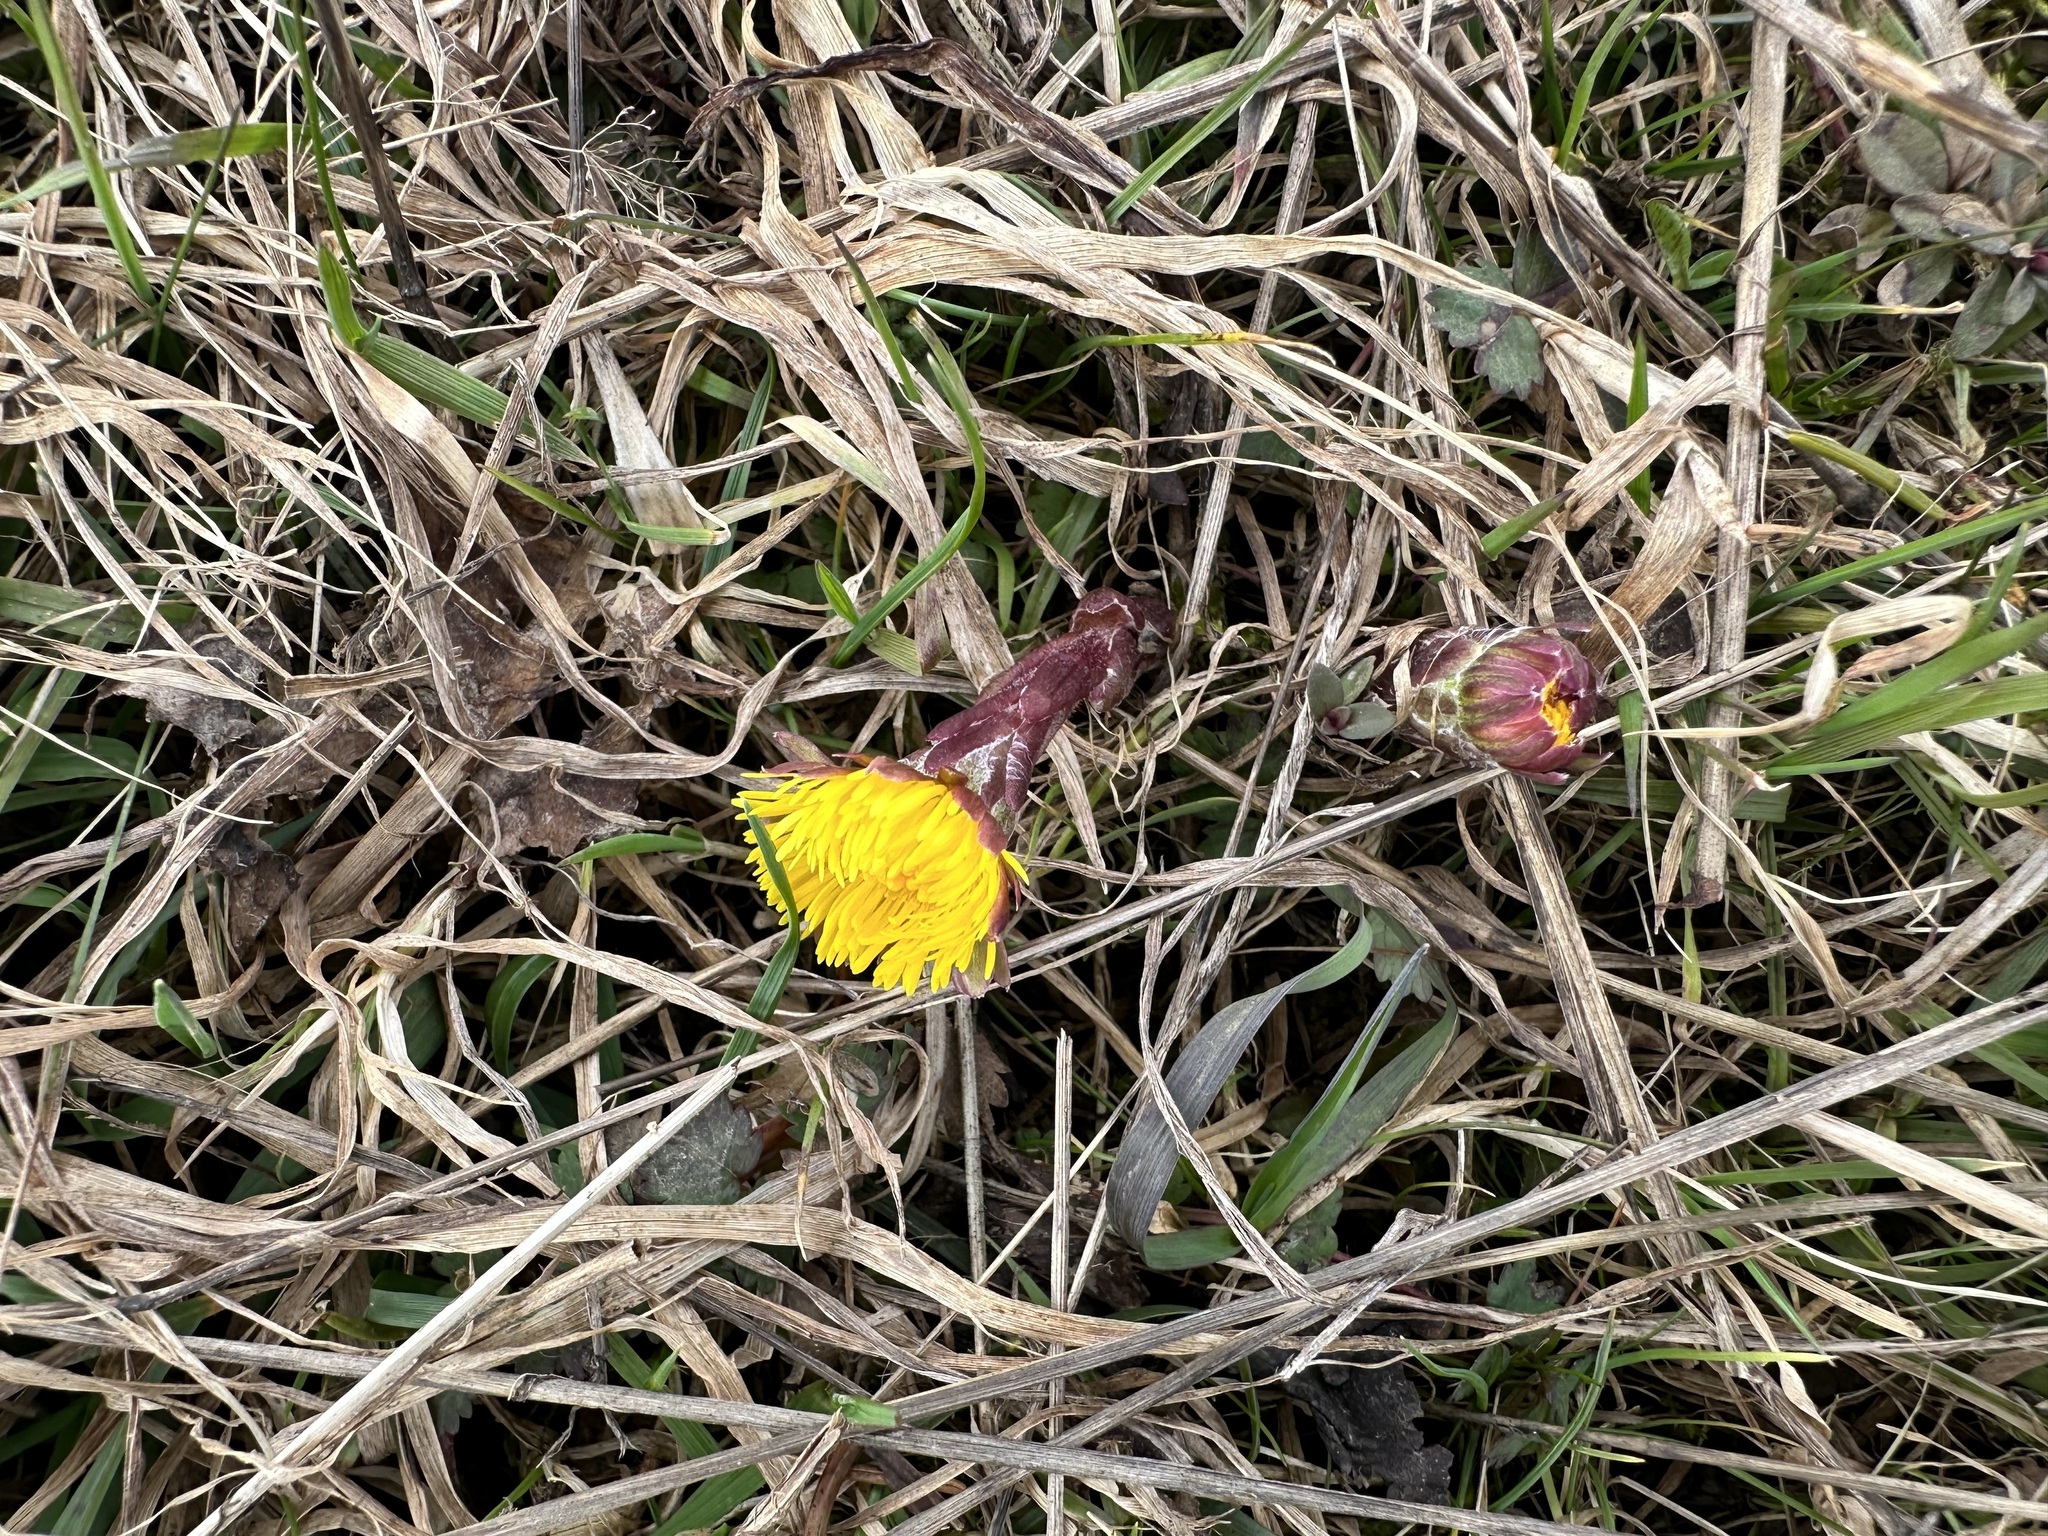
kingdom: Plantae
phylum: Tracheophyta
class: Magnoliopsida
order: Asterales
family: Asteraceae
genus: Tussilago
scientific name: Tussilago farfara
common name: Coltsfoot
